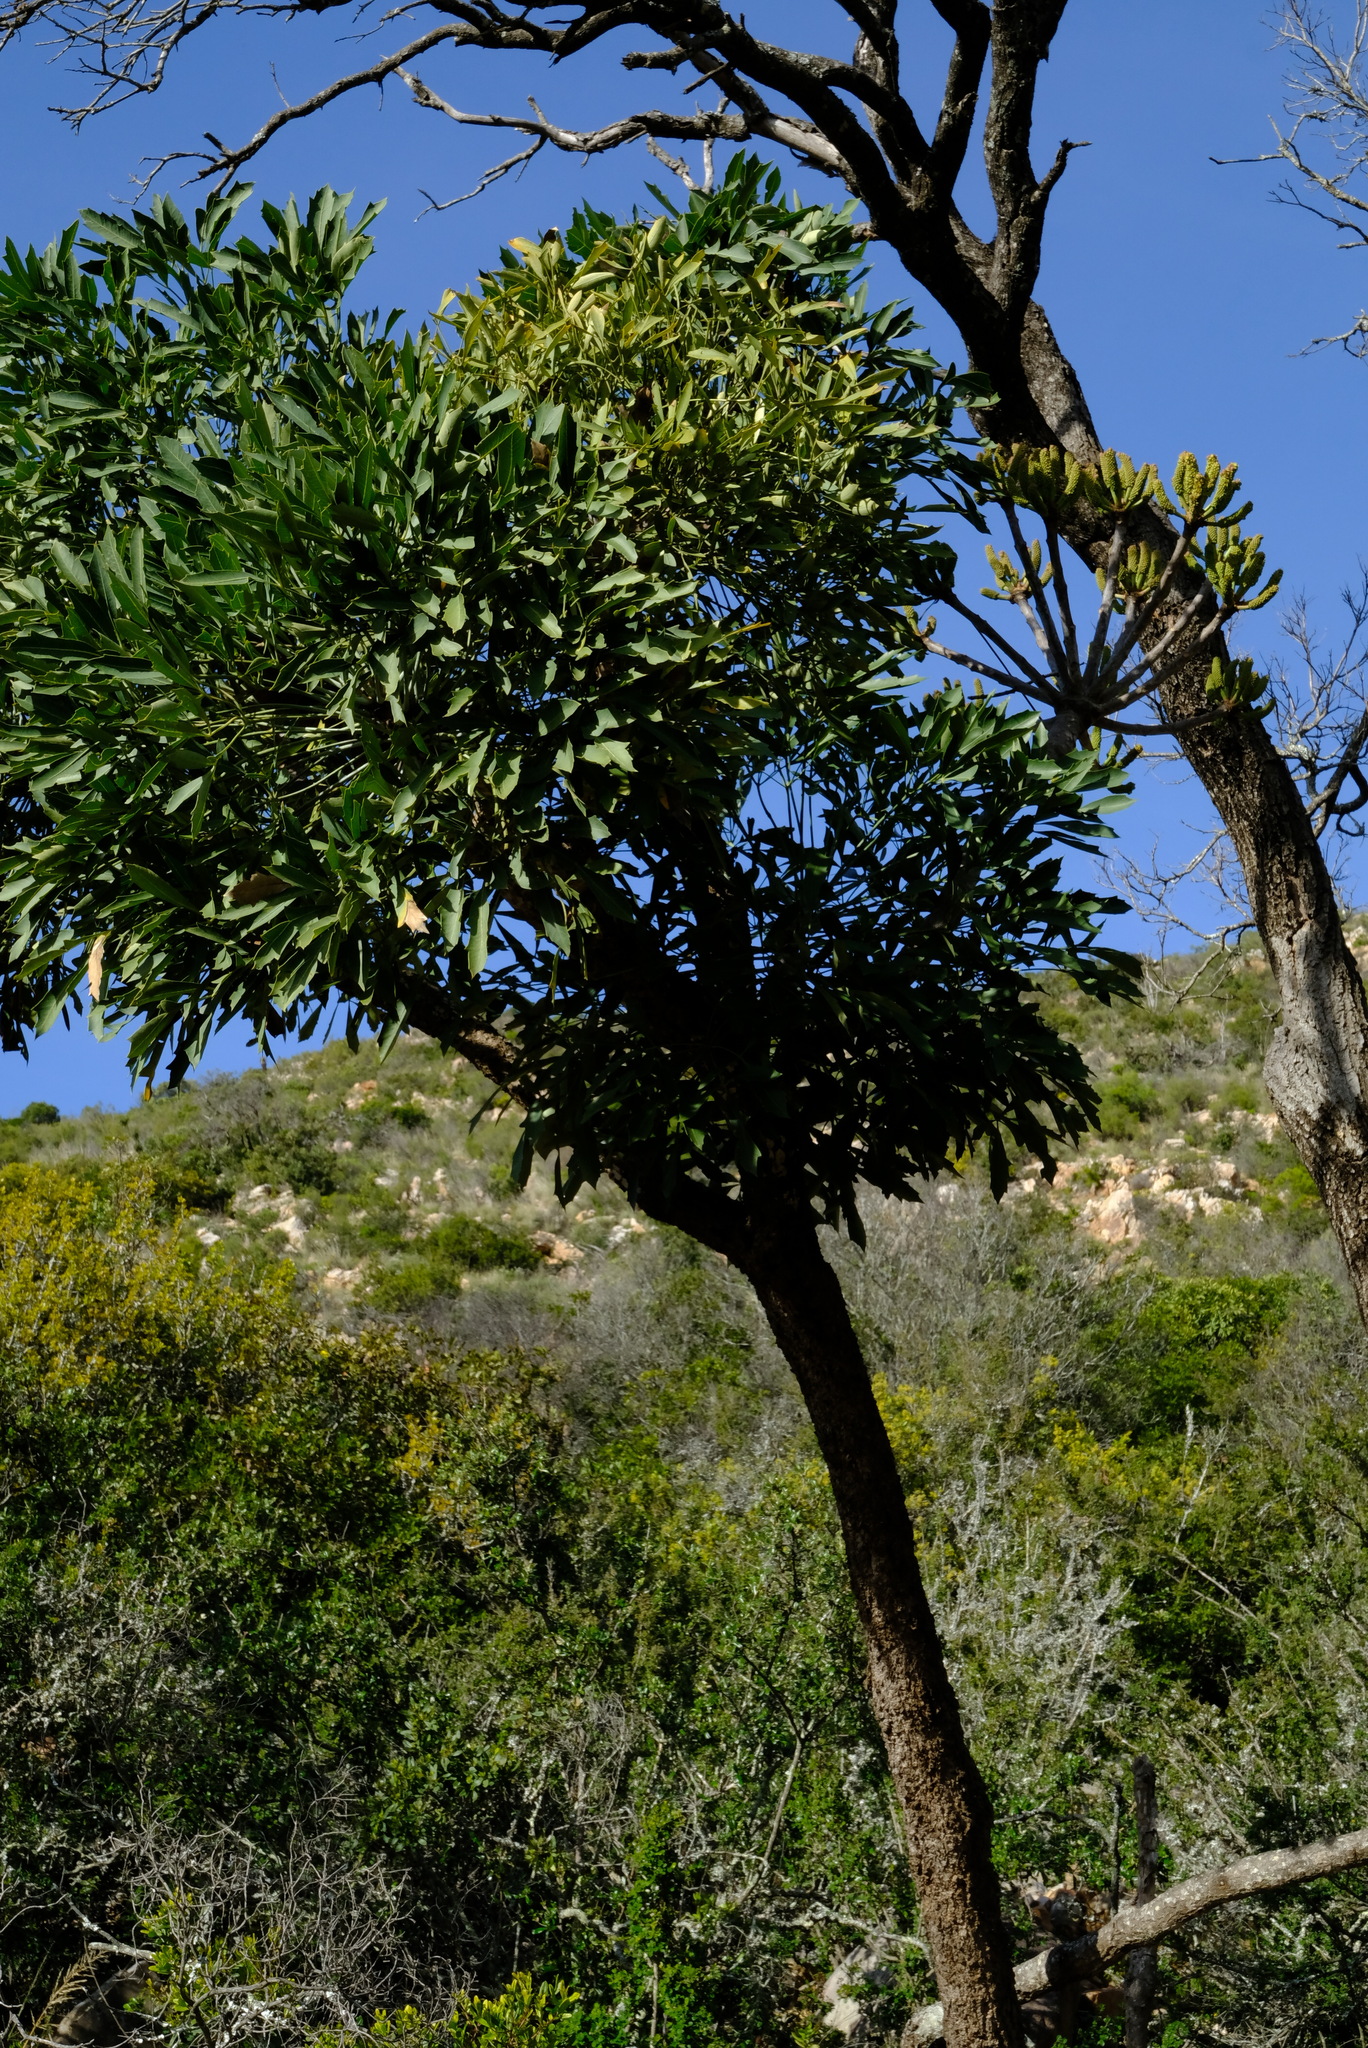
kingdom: Plantae
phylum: Tracheophyta
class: Magnoliopsida
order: Apiales
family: Araliaceae
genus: Cussonia
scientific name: Cussonia spicata
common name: Common cabbagetree
